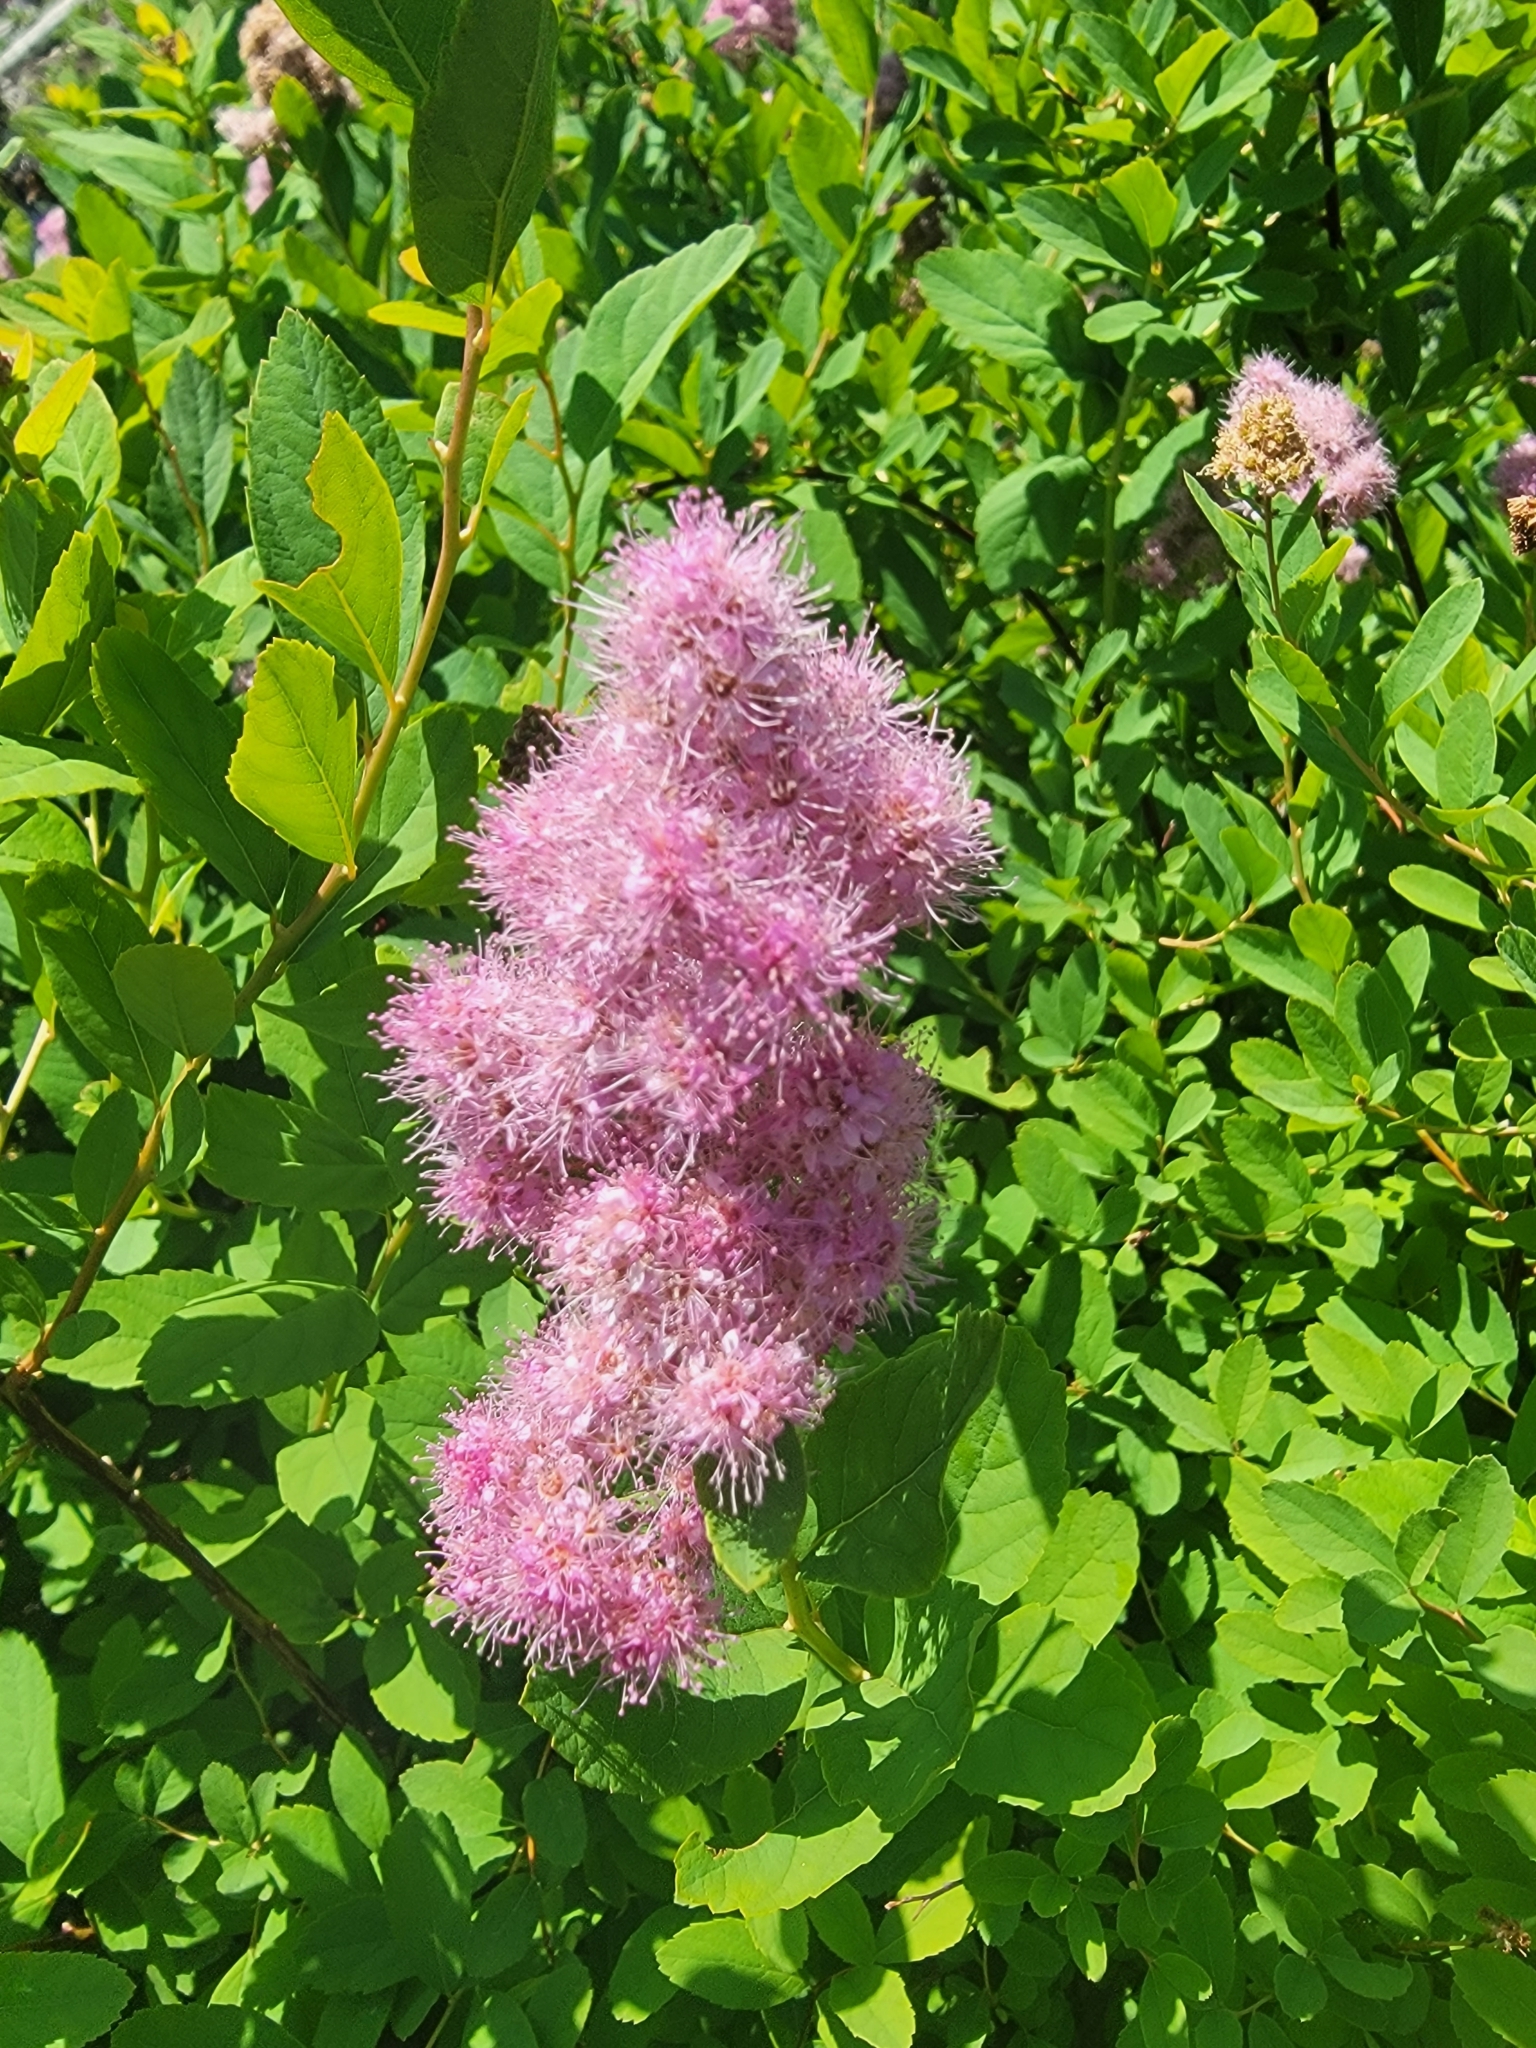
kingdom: Plantae
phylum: Tracheophyta
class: Magnoliopsida
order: Rosales
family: Rosaceae
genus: Spiraea
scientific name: Spiraea splendens
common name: Subalpine meadowsweet
